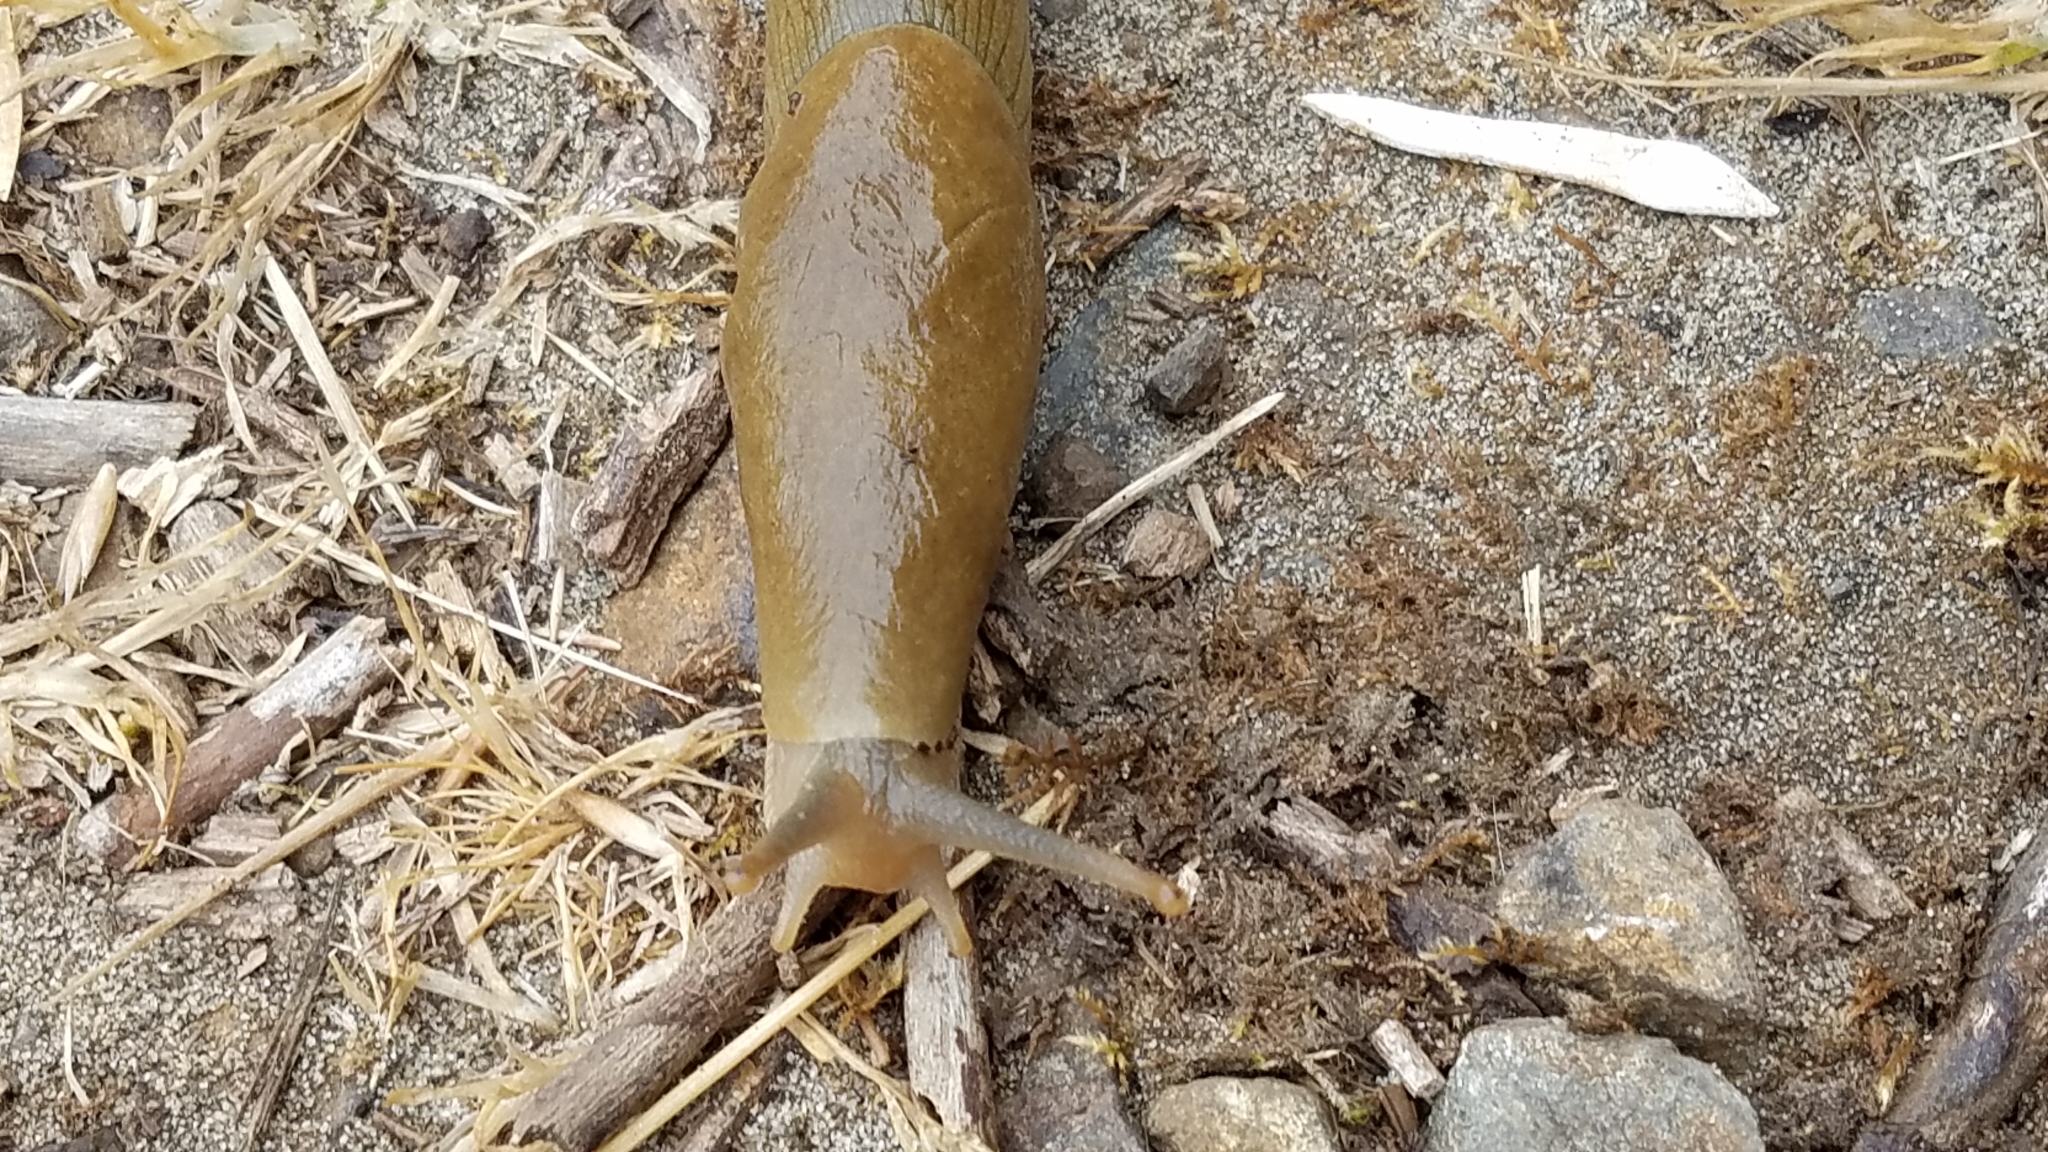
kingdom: Animalia
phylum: Mollusca
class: Gastropoda
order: Stylommatophora
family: Ariolimacidae
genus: Ariolimax
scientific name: Ariolimax columbianus
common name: Pacific banana slug
